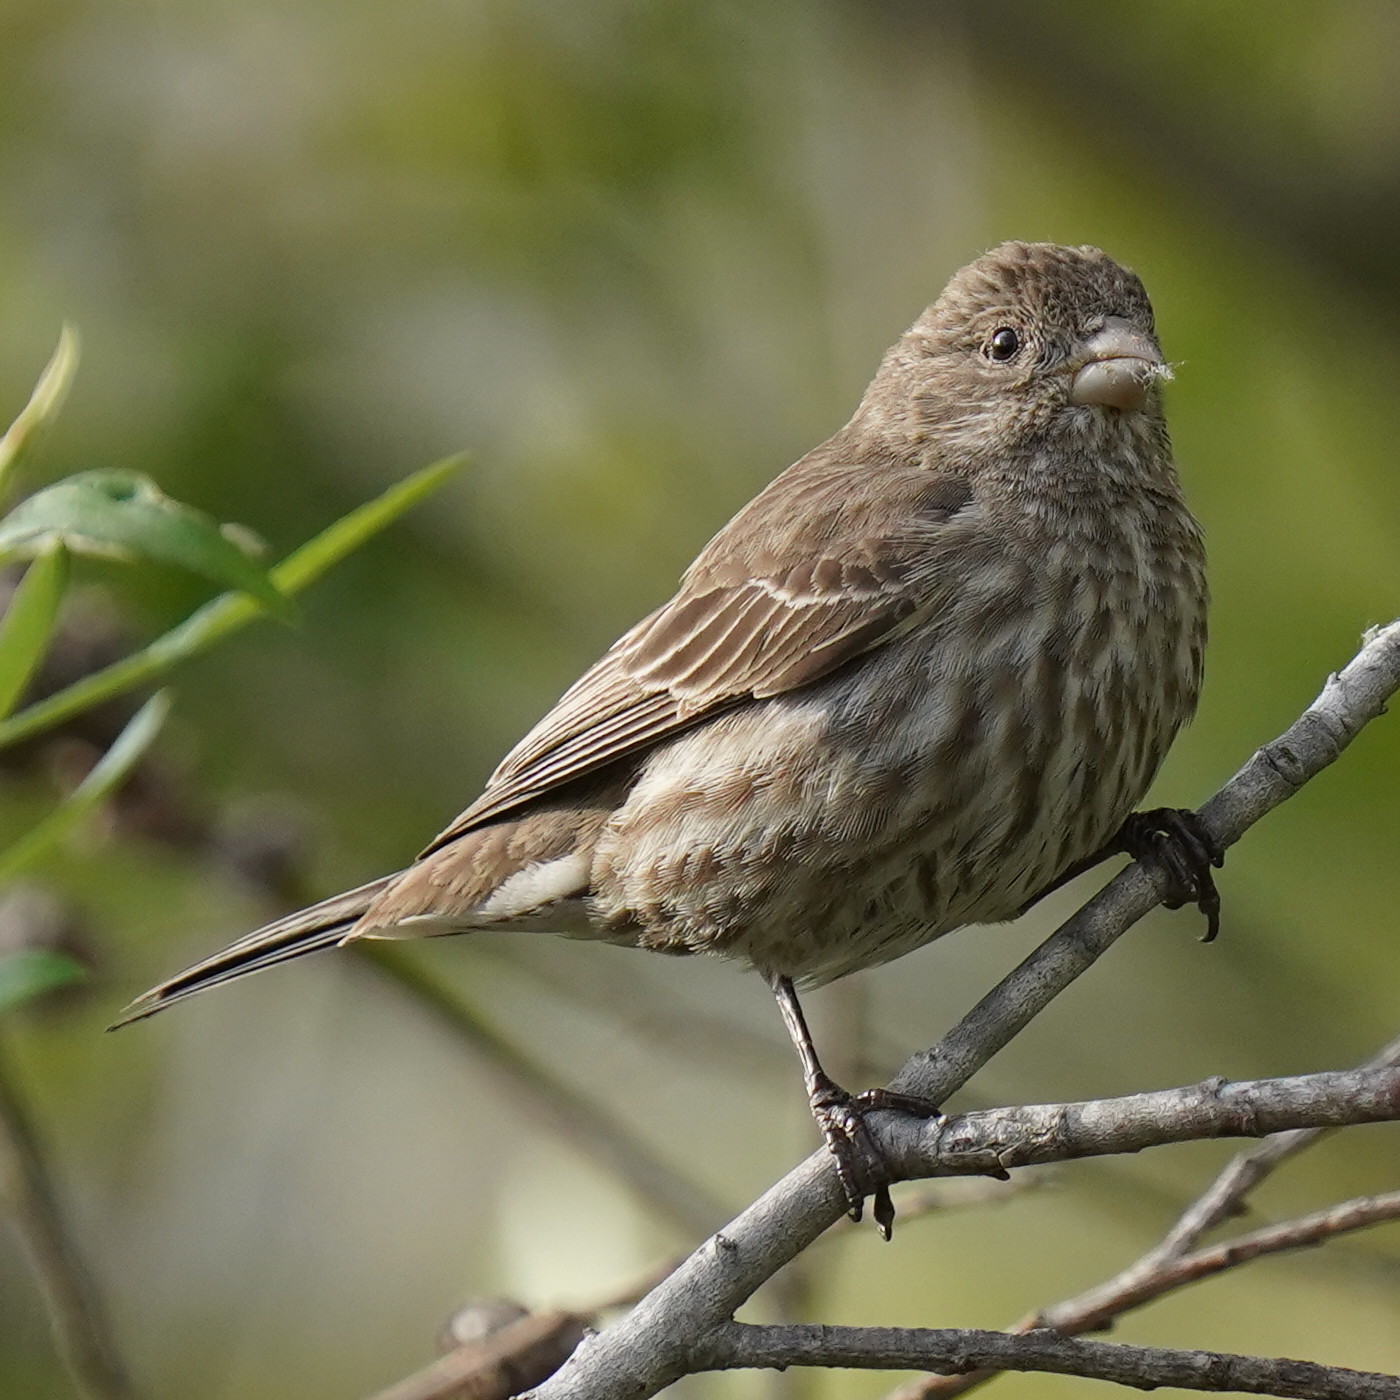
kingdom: Animalia
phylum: Chordata
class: Aves
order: Passeriformes
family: Fringillidae
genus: Haemorhous
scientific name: Haemorhous mexicanus
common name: House finch
